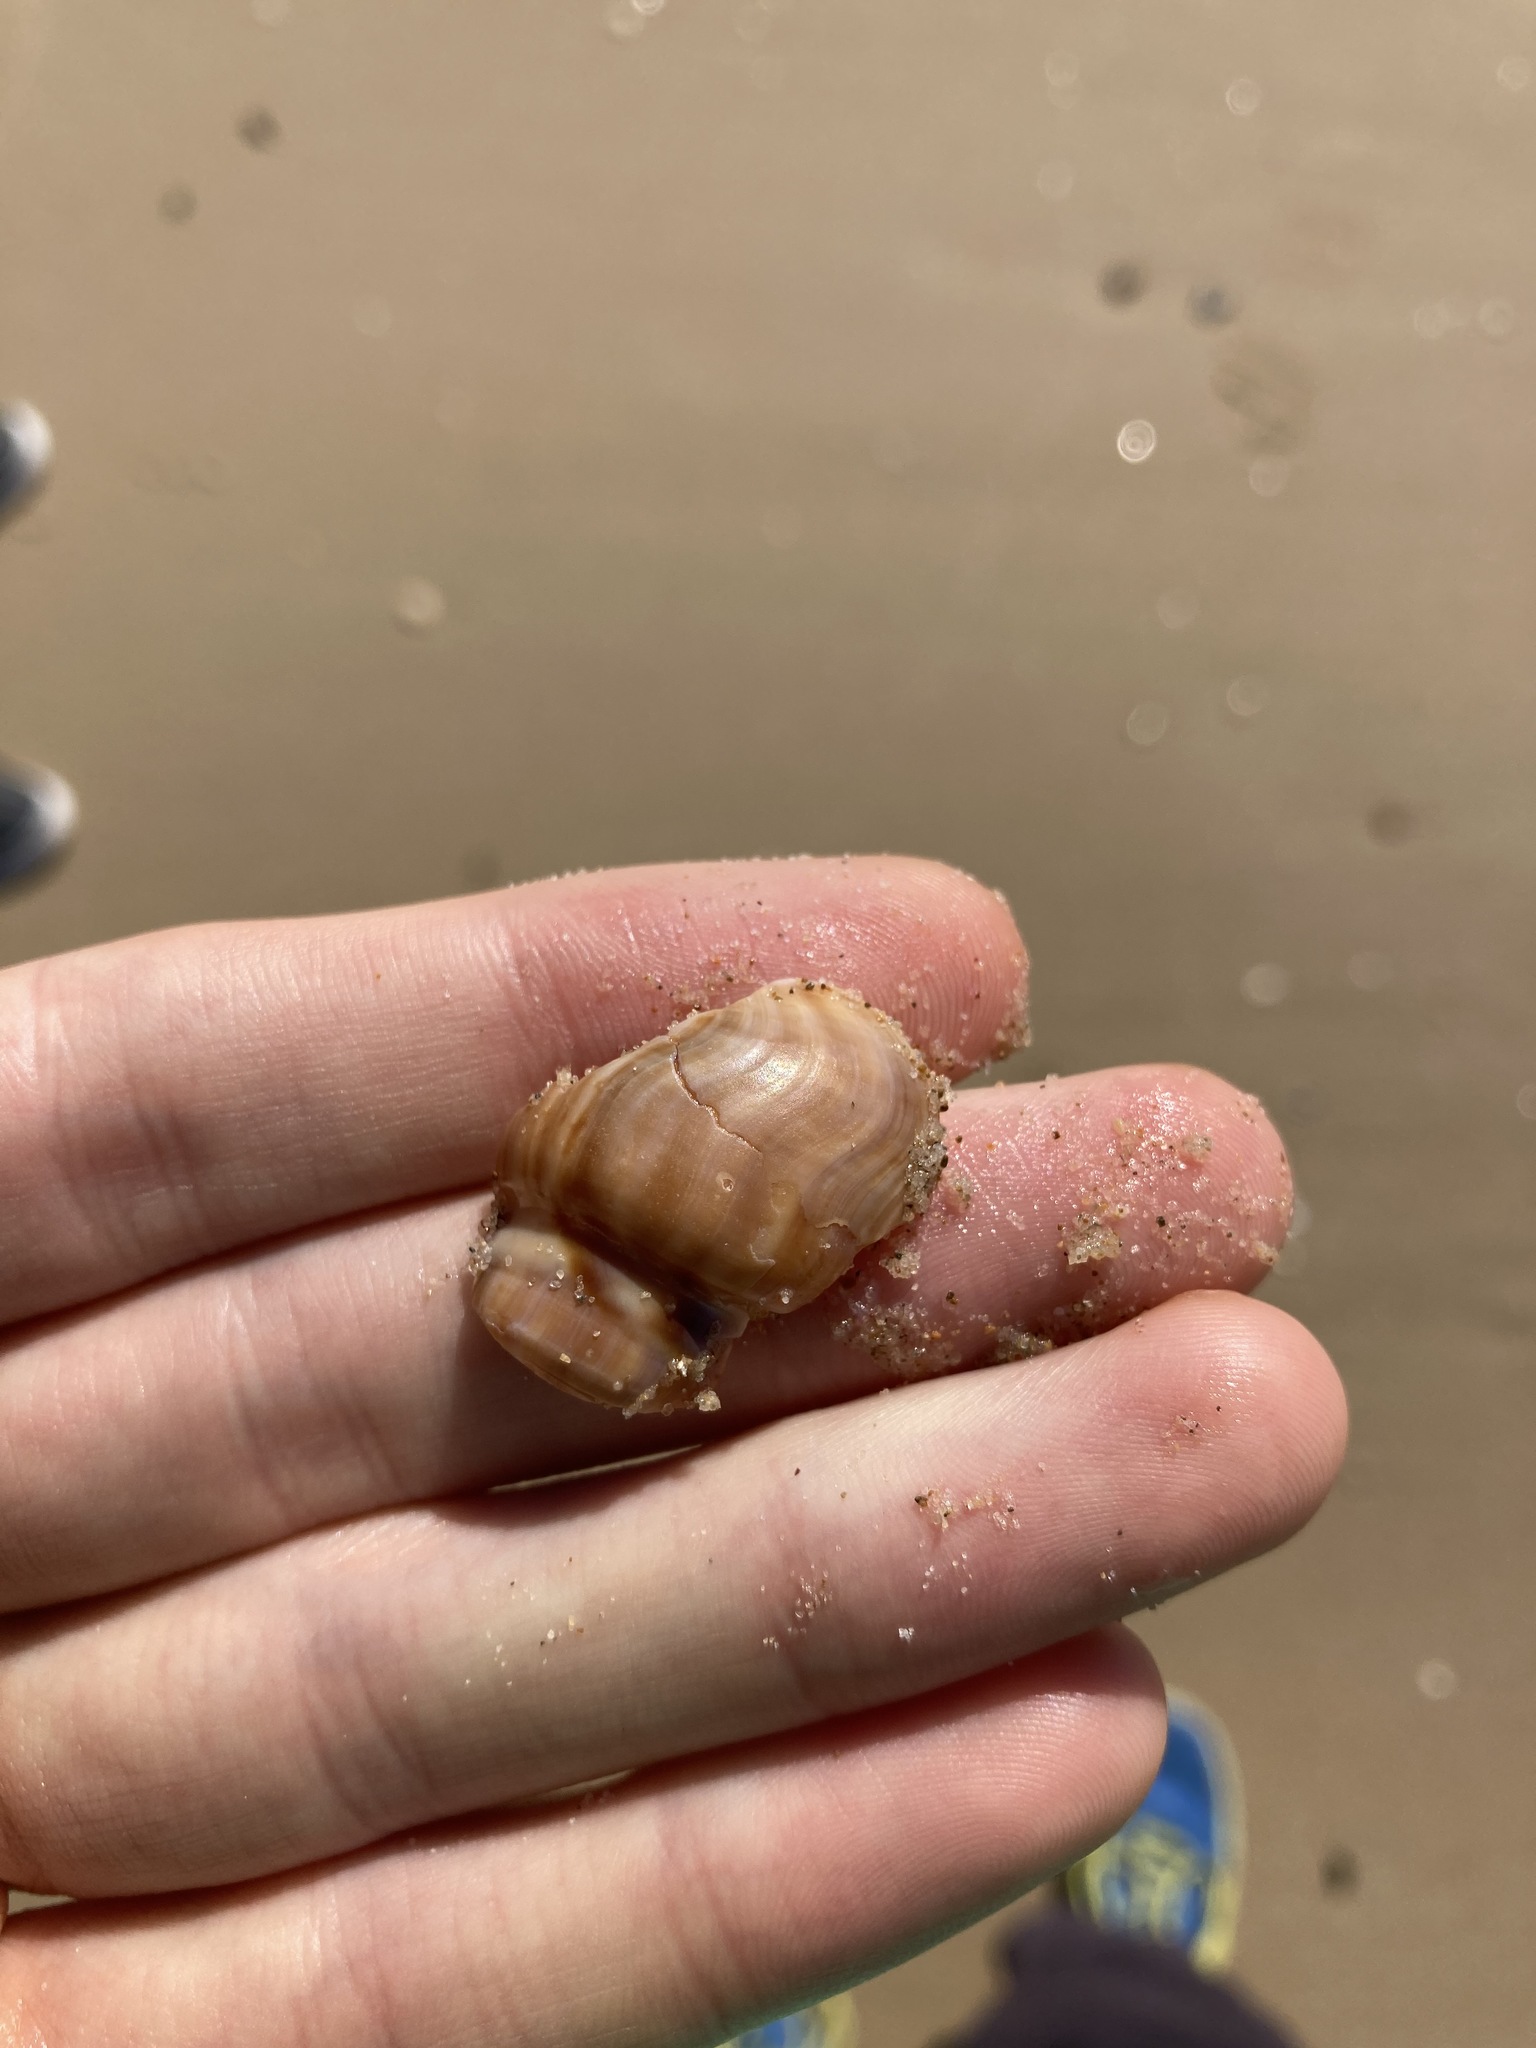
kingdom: Animalia
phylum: Mollusca
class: Gastropoda
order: Littorinimorpha
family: Struthiolariidae
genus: Tylospira
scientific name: Tylospira scutulata
